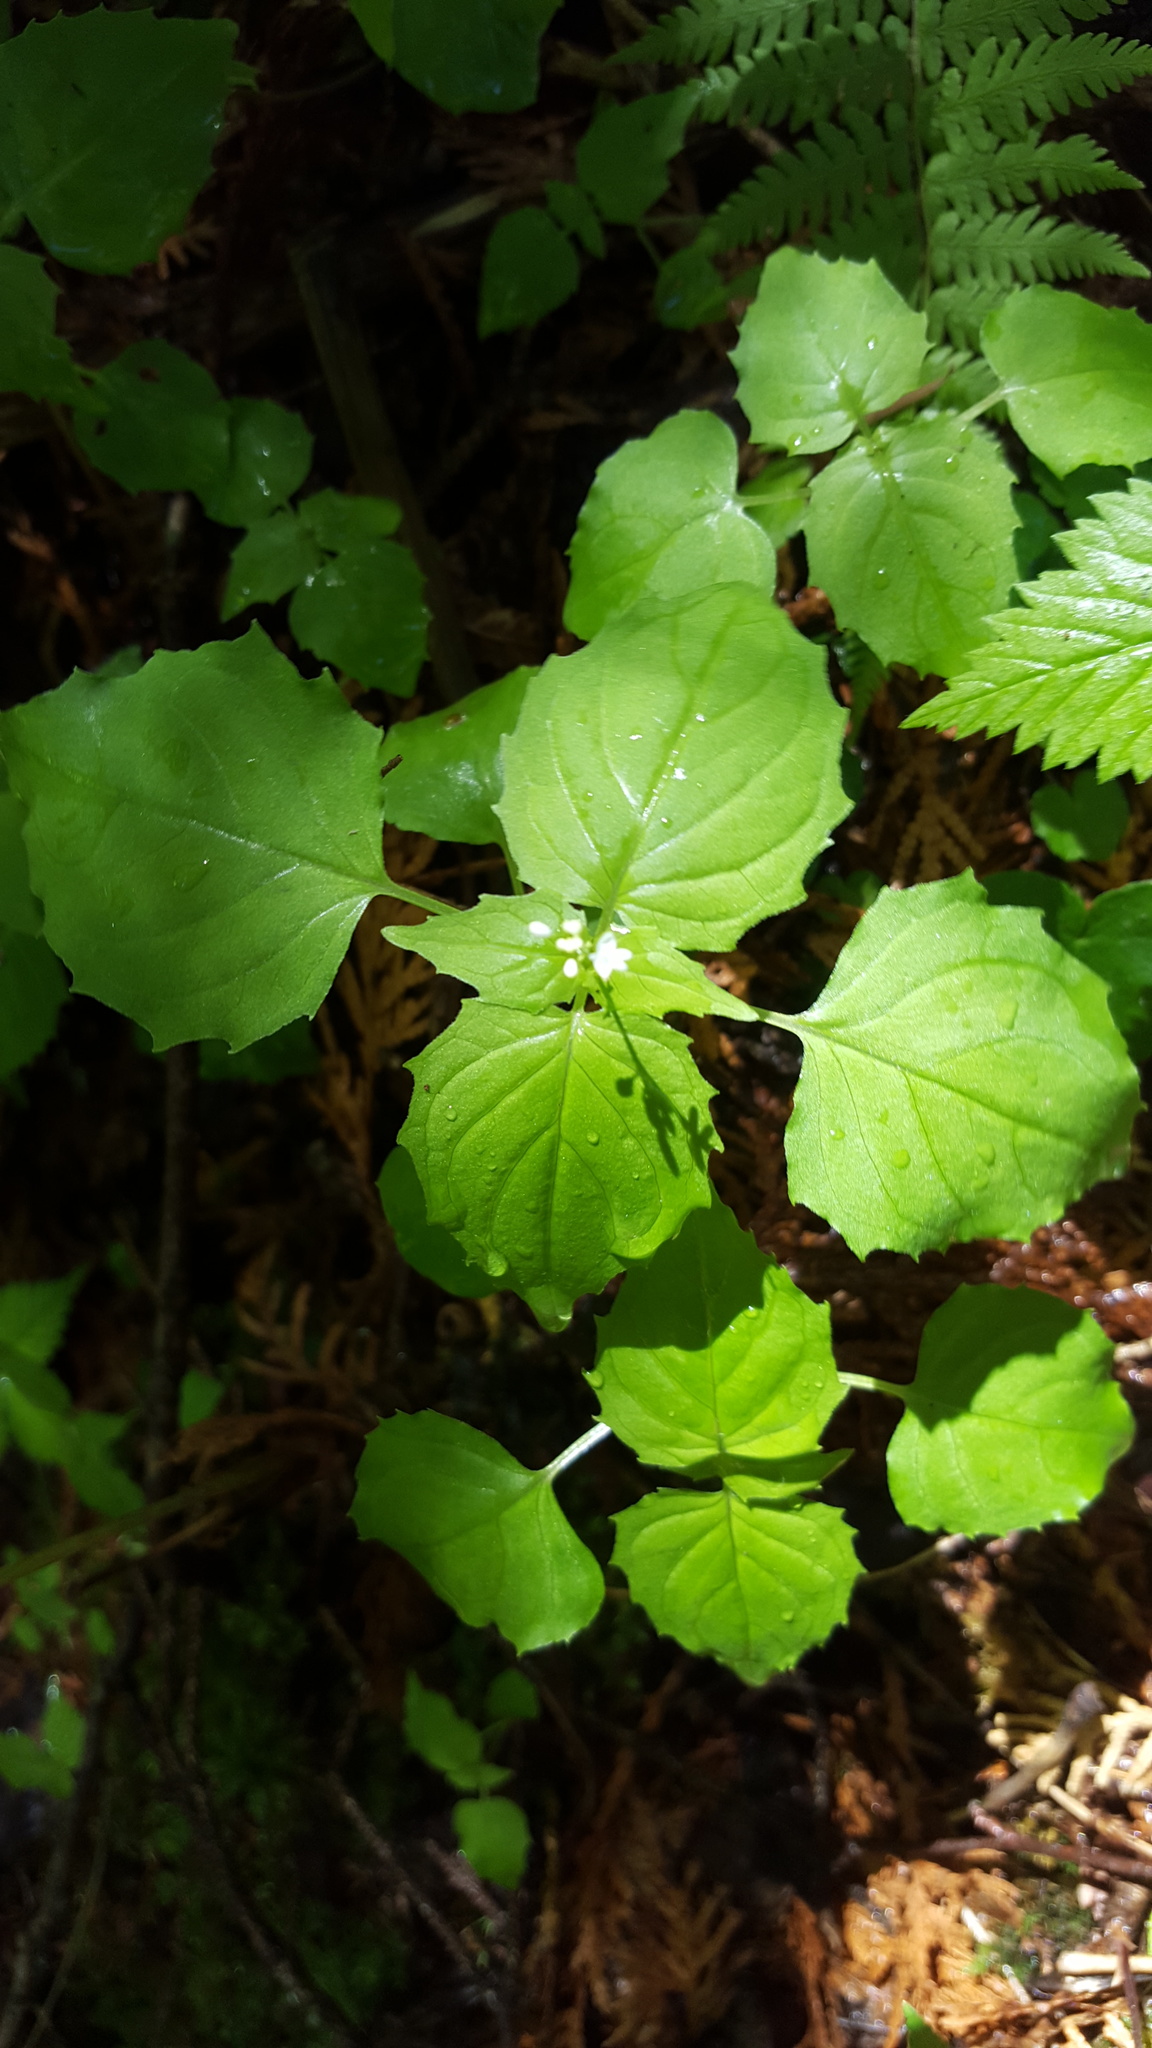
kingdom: Plantae
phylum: Tracheophyta
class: Magnoliopsida
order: Myrtales
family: Onagraceae
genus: Circaea
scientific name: Circaea alpina
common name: Alpine enchanter's-nightshade
